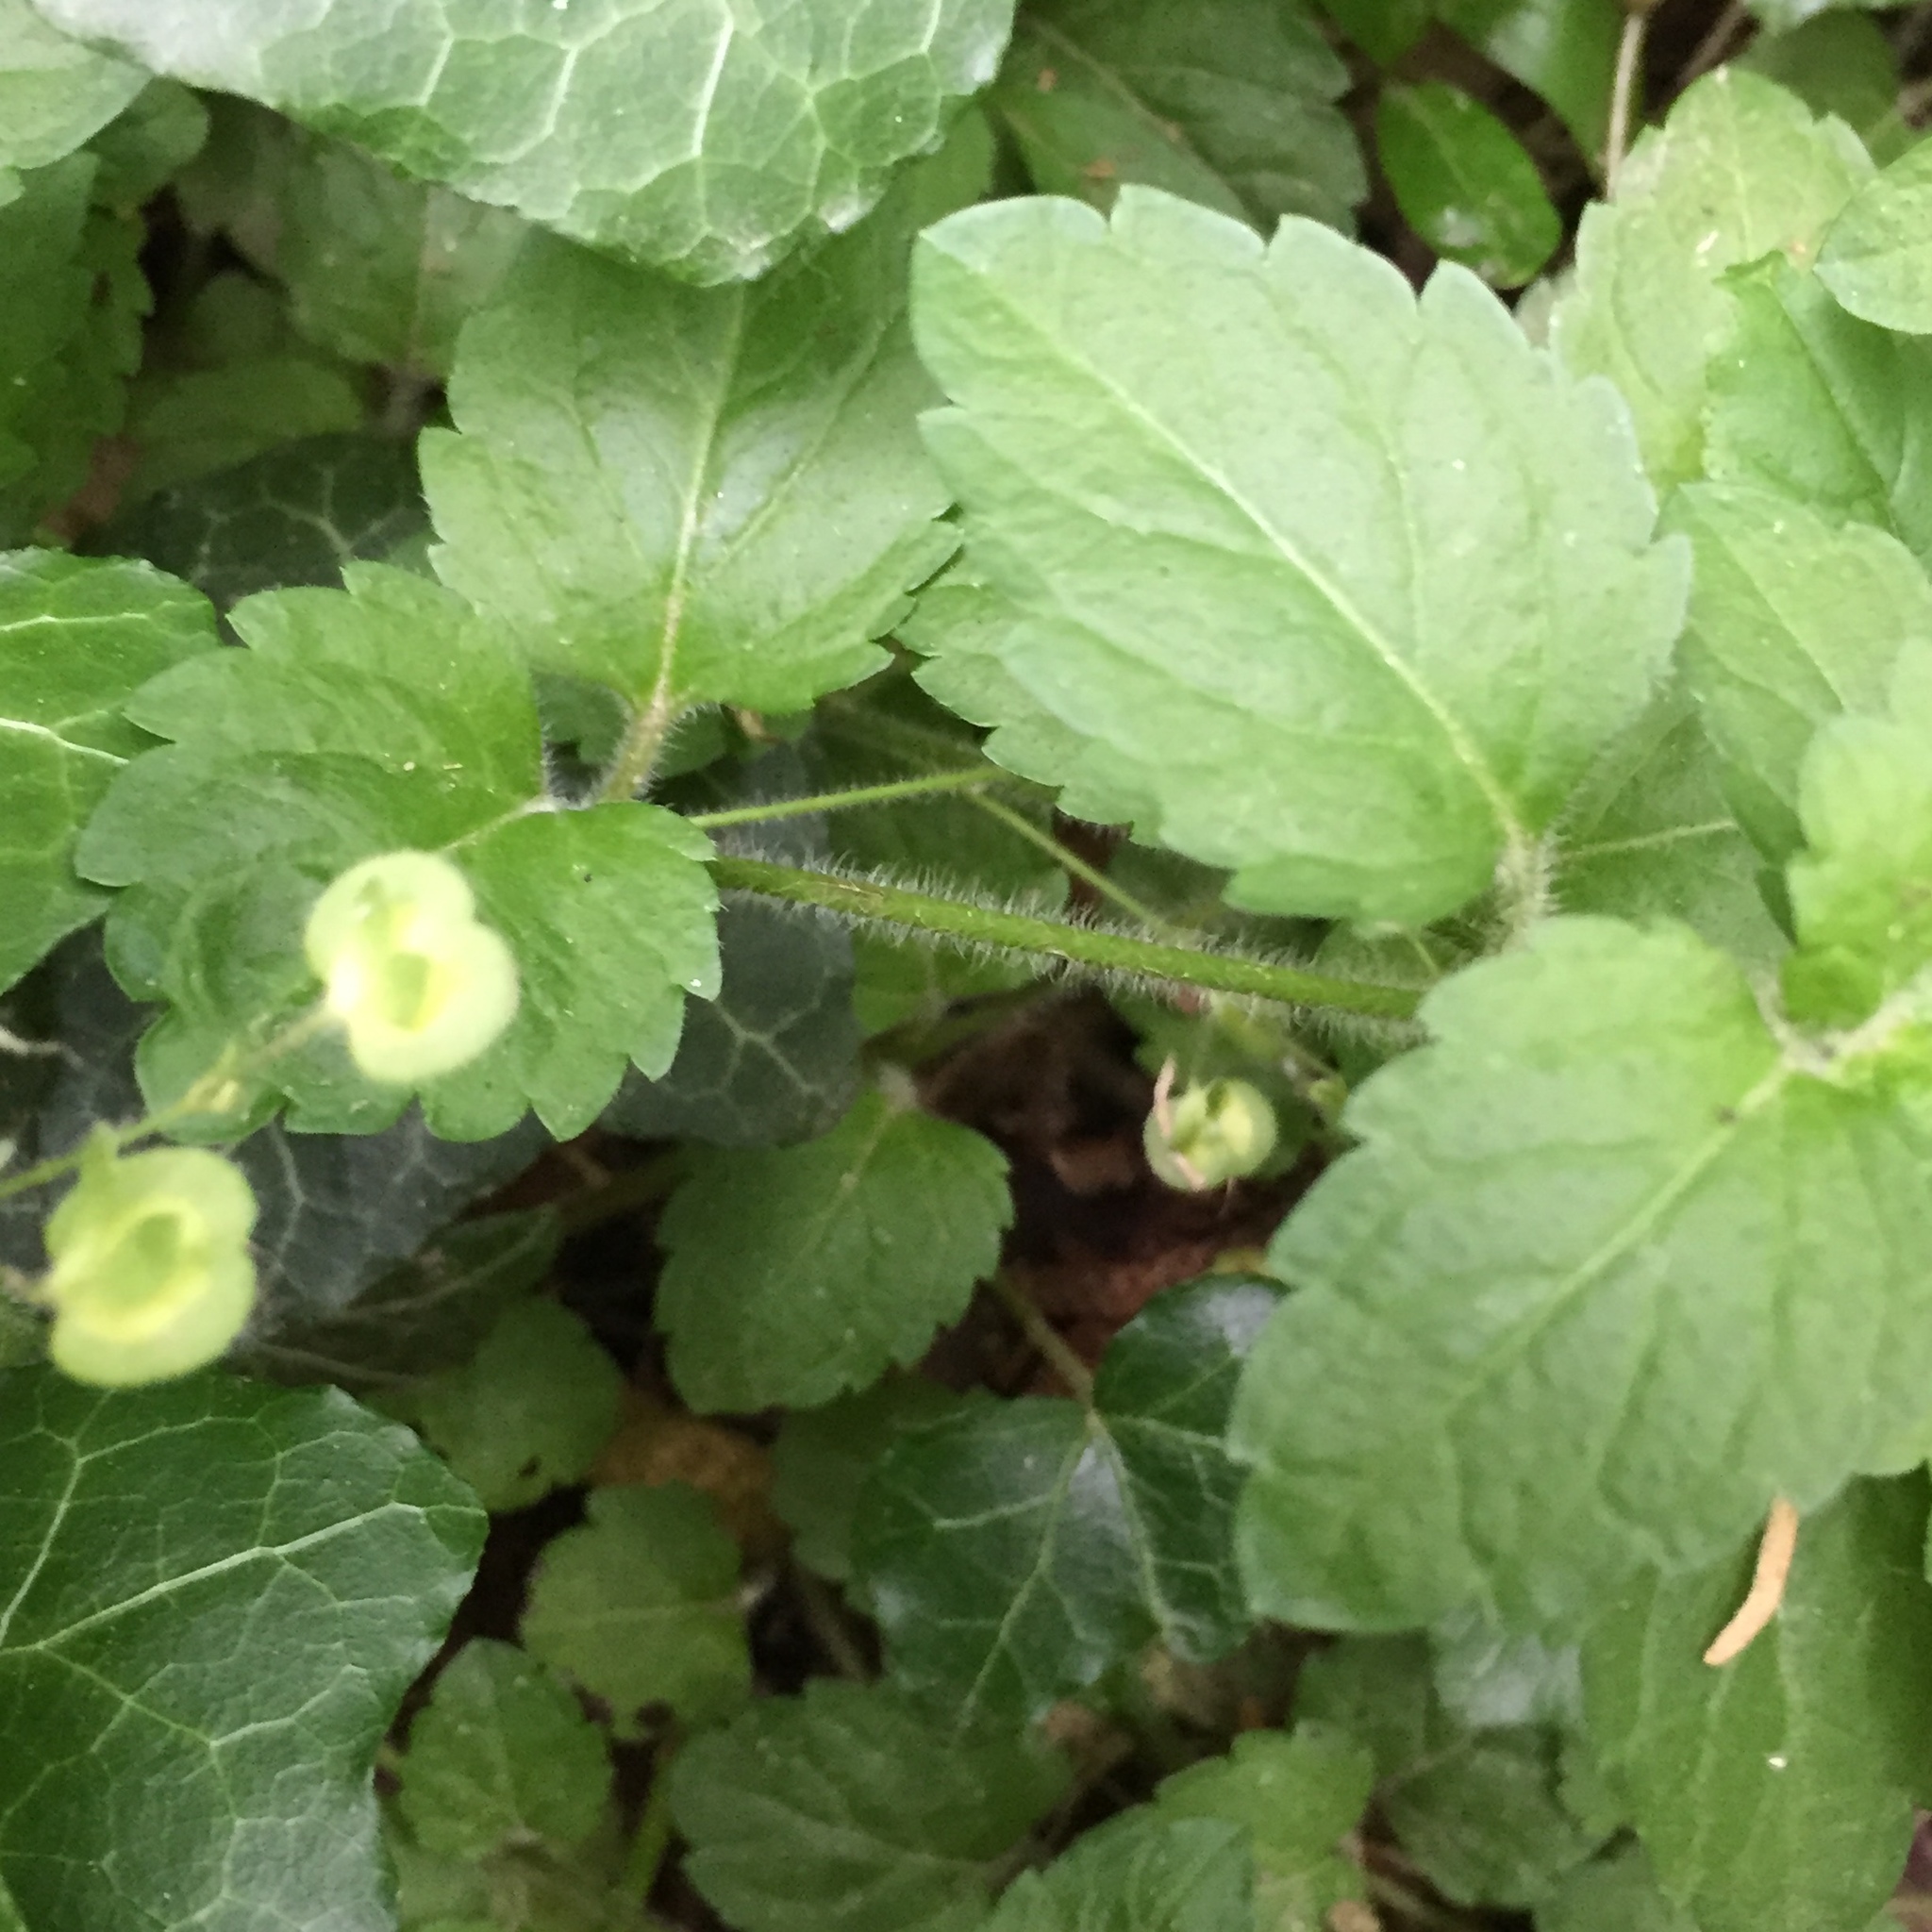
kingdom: Plantae
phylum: Tracheophyta
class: Magnoliopsida
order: Lamiales
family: Plantaginaceae
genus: Veronica
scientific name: Veronica montana
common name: Wood speedwell
